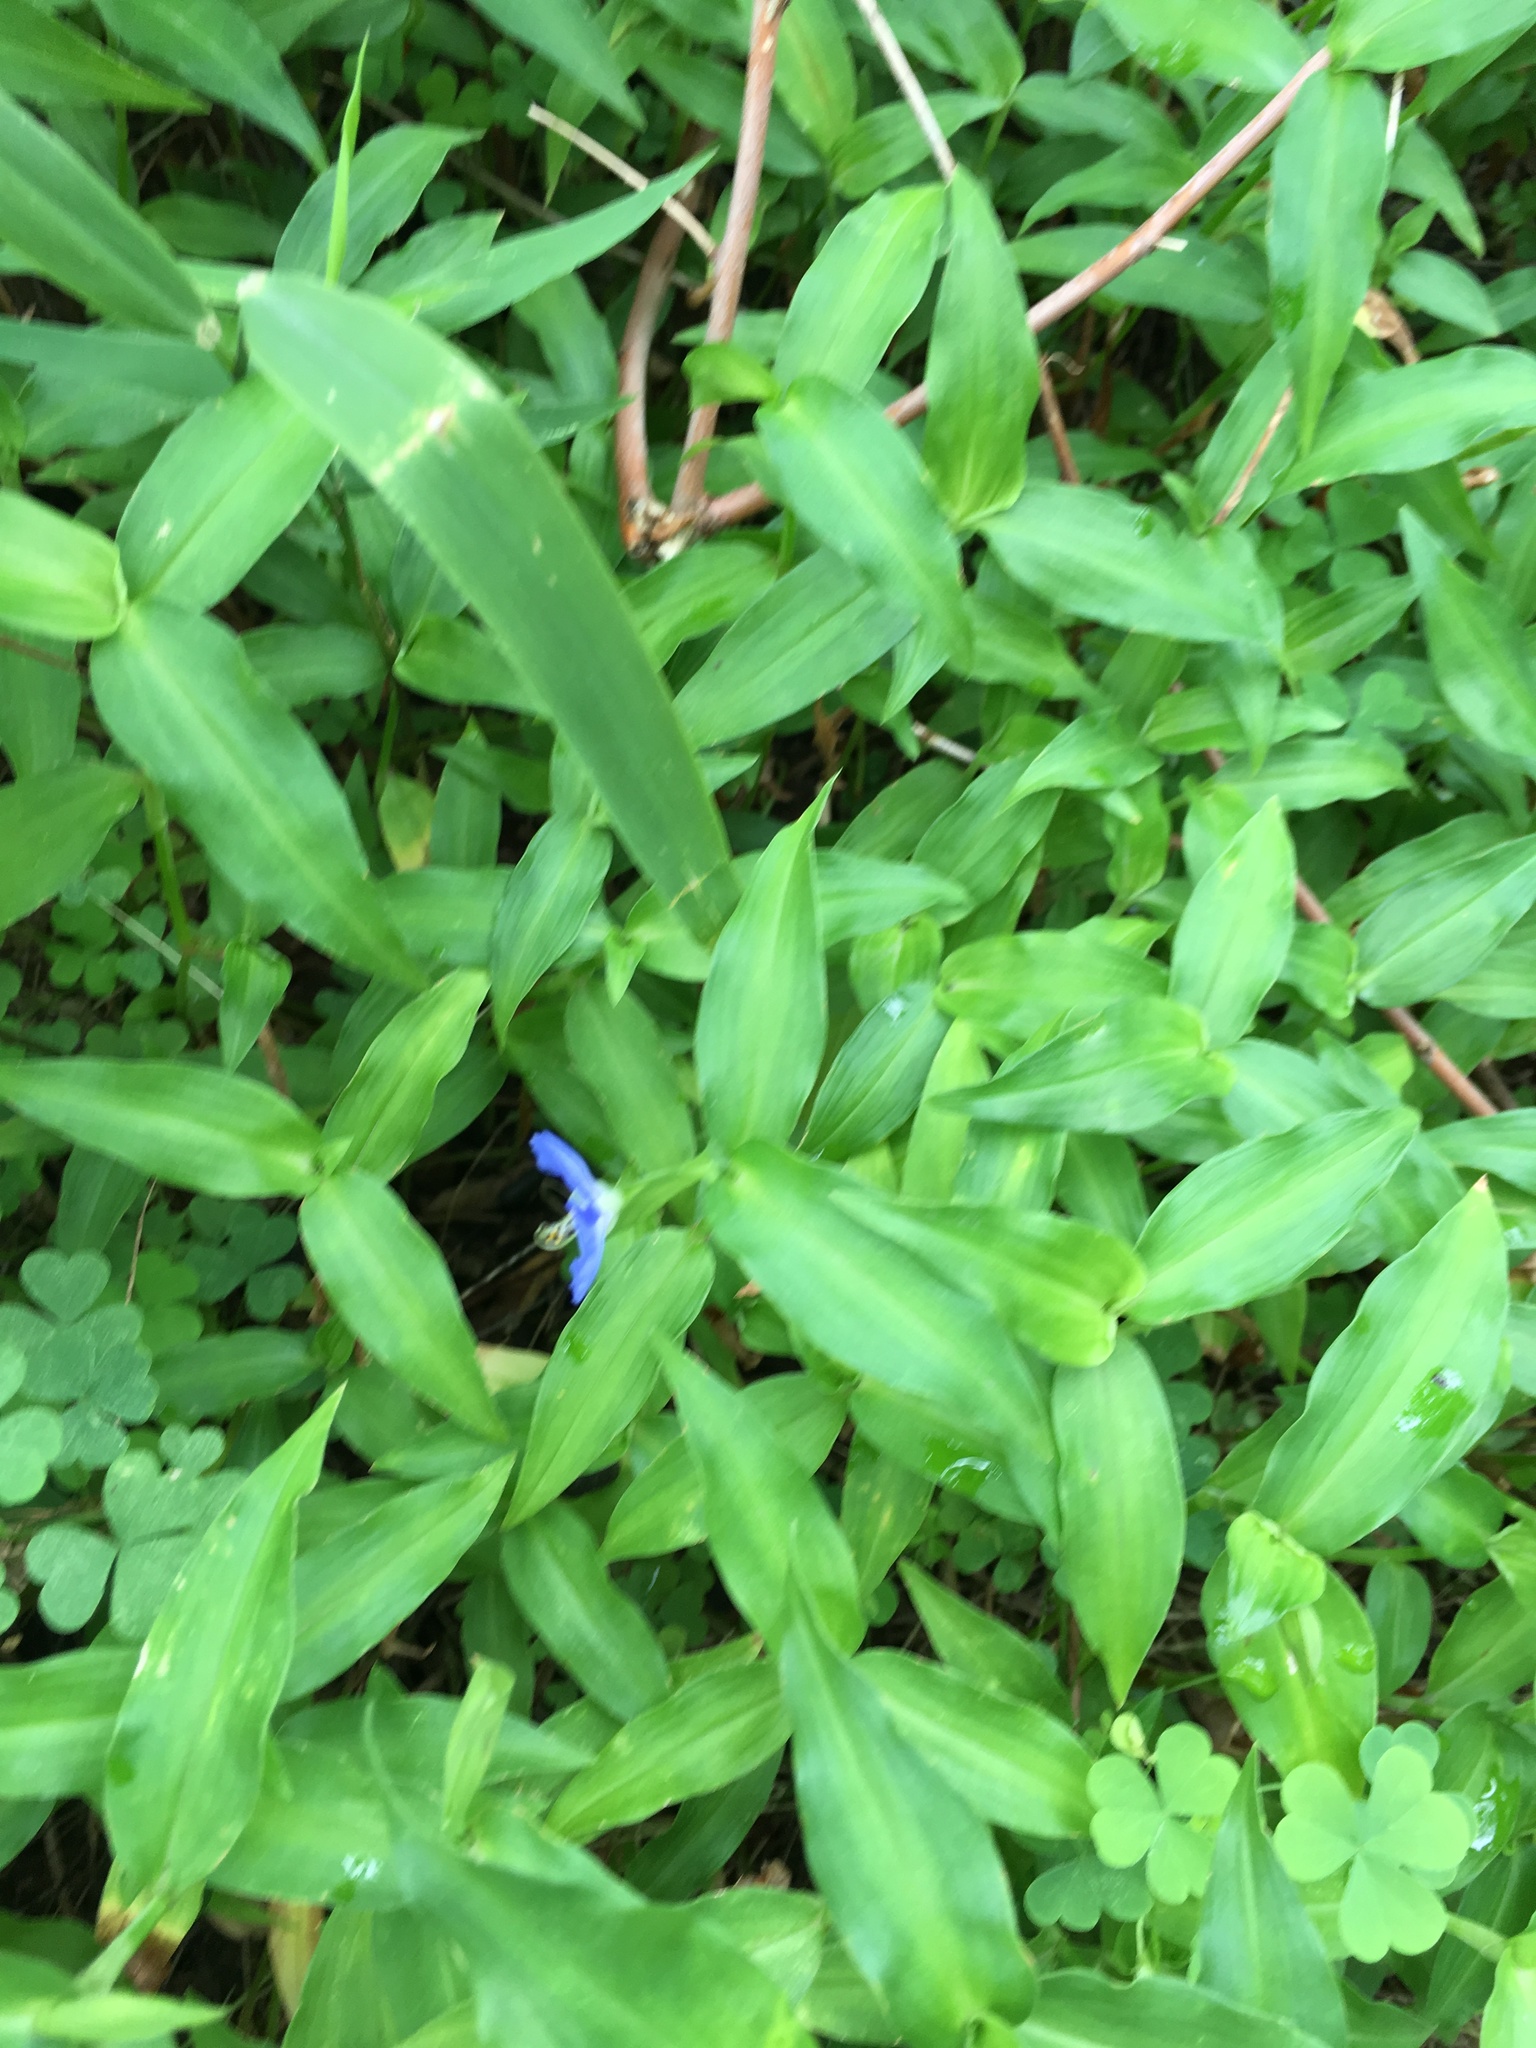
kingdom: Plantae
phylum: Tracheophyta
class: Liliopsida
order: Commelinales
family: Commelinaceae
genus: Commelina
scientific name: Commelina communis
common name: Asiatic dayflower
